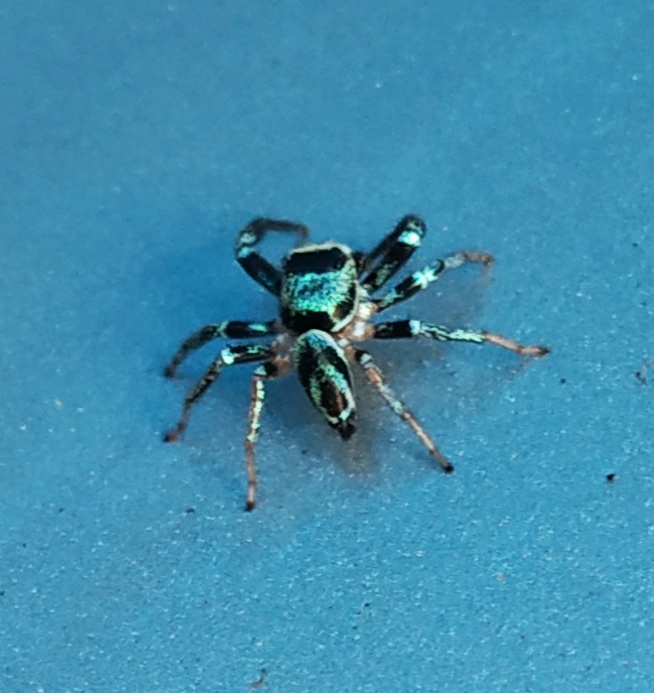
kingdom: Animalia
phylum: Arthropoda
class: Arachnida
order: Araneae
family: Salticidae
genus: Thiania
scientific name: Thiania bhamoensis
